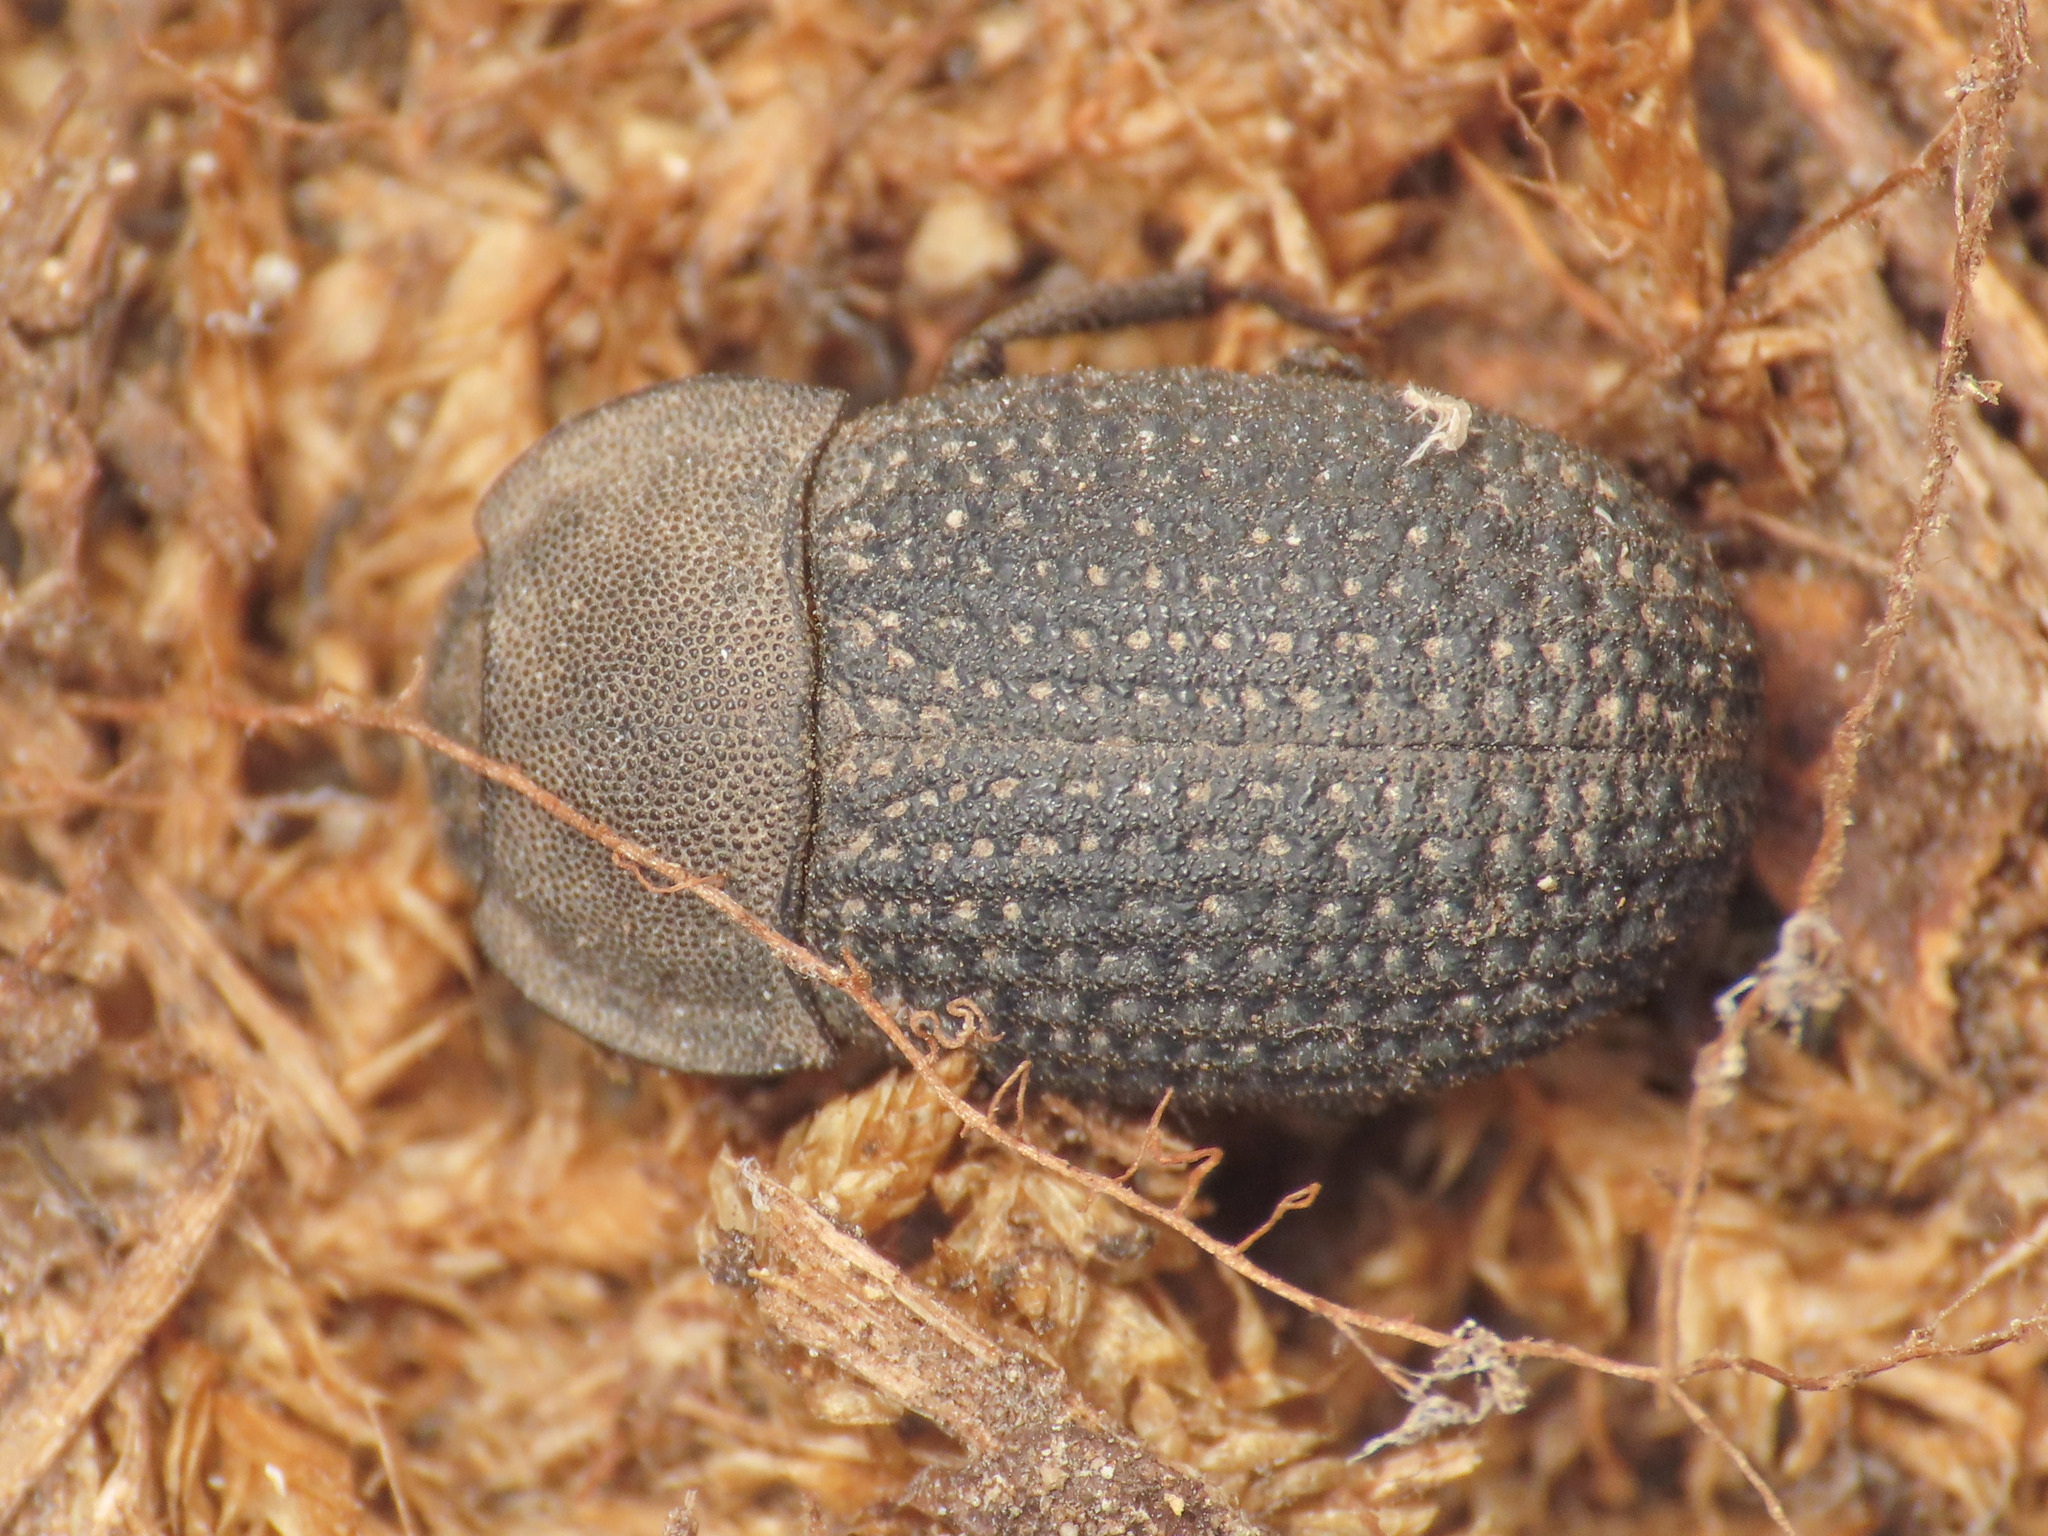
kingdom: Animalia
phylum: Arthropoda
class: Insecta
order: Coleoptera
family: Tenebrionidae
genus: Opatrum
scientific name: Opatrum dahli
